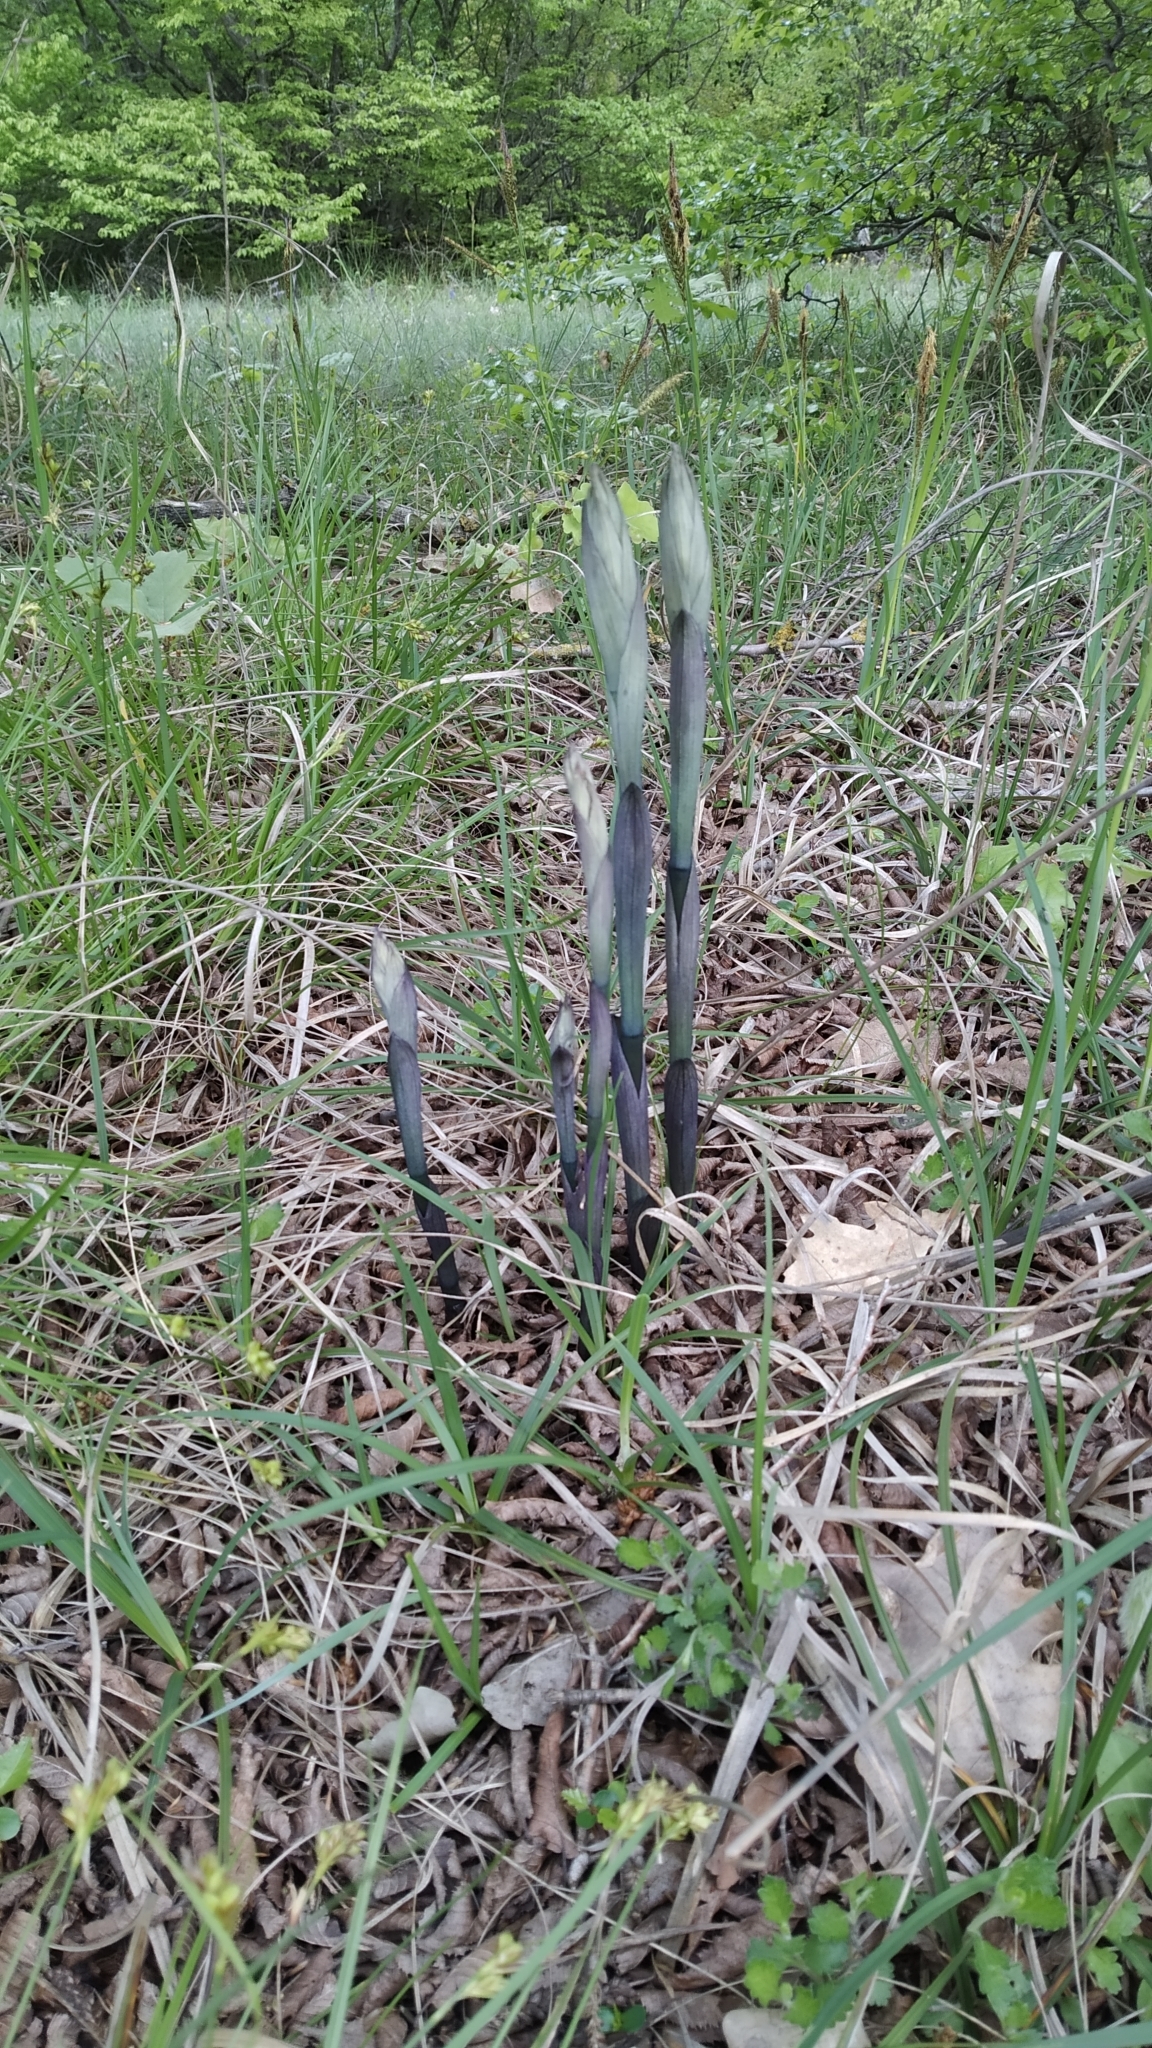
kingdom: Plantae
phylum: Tracheophyta
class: Liliopsida
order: Asparagales
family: Orchidaceae
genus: Limodorum
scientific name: Limodorum abortivum
